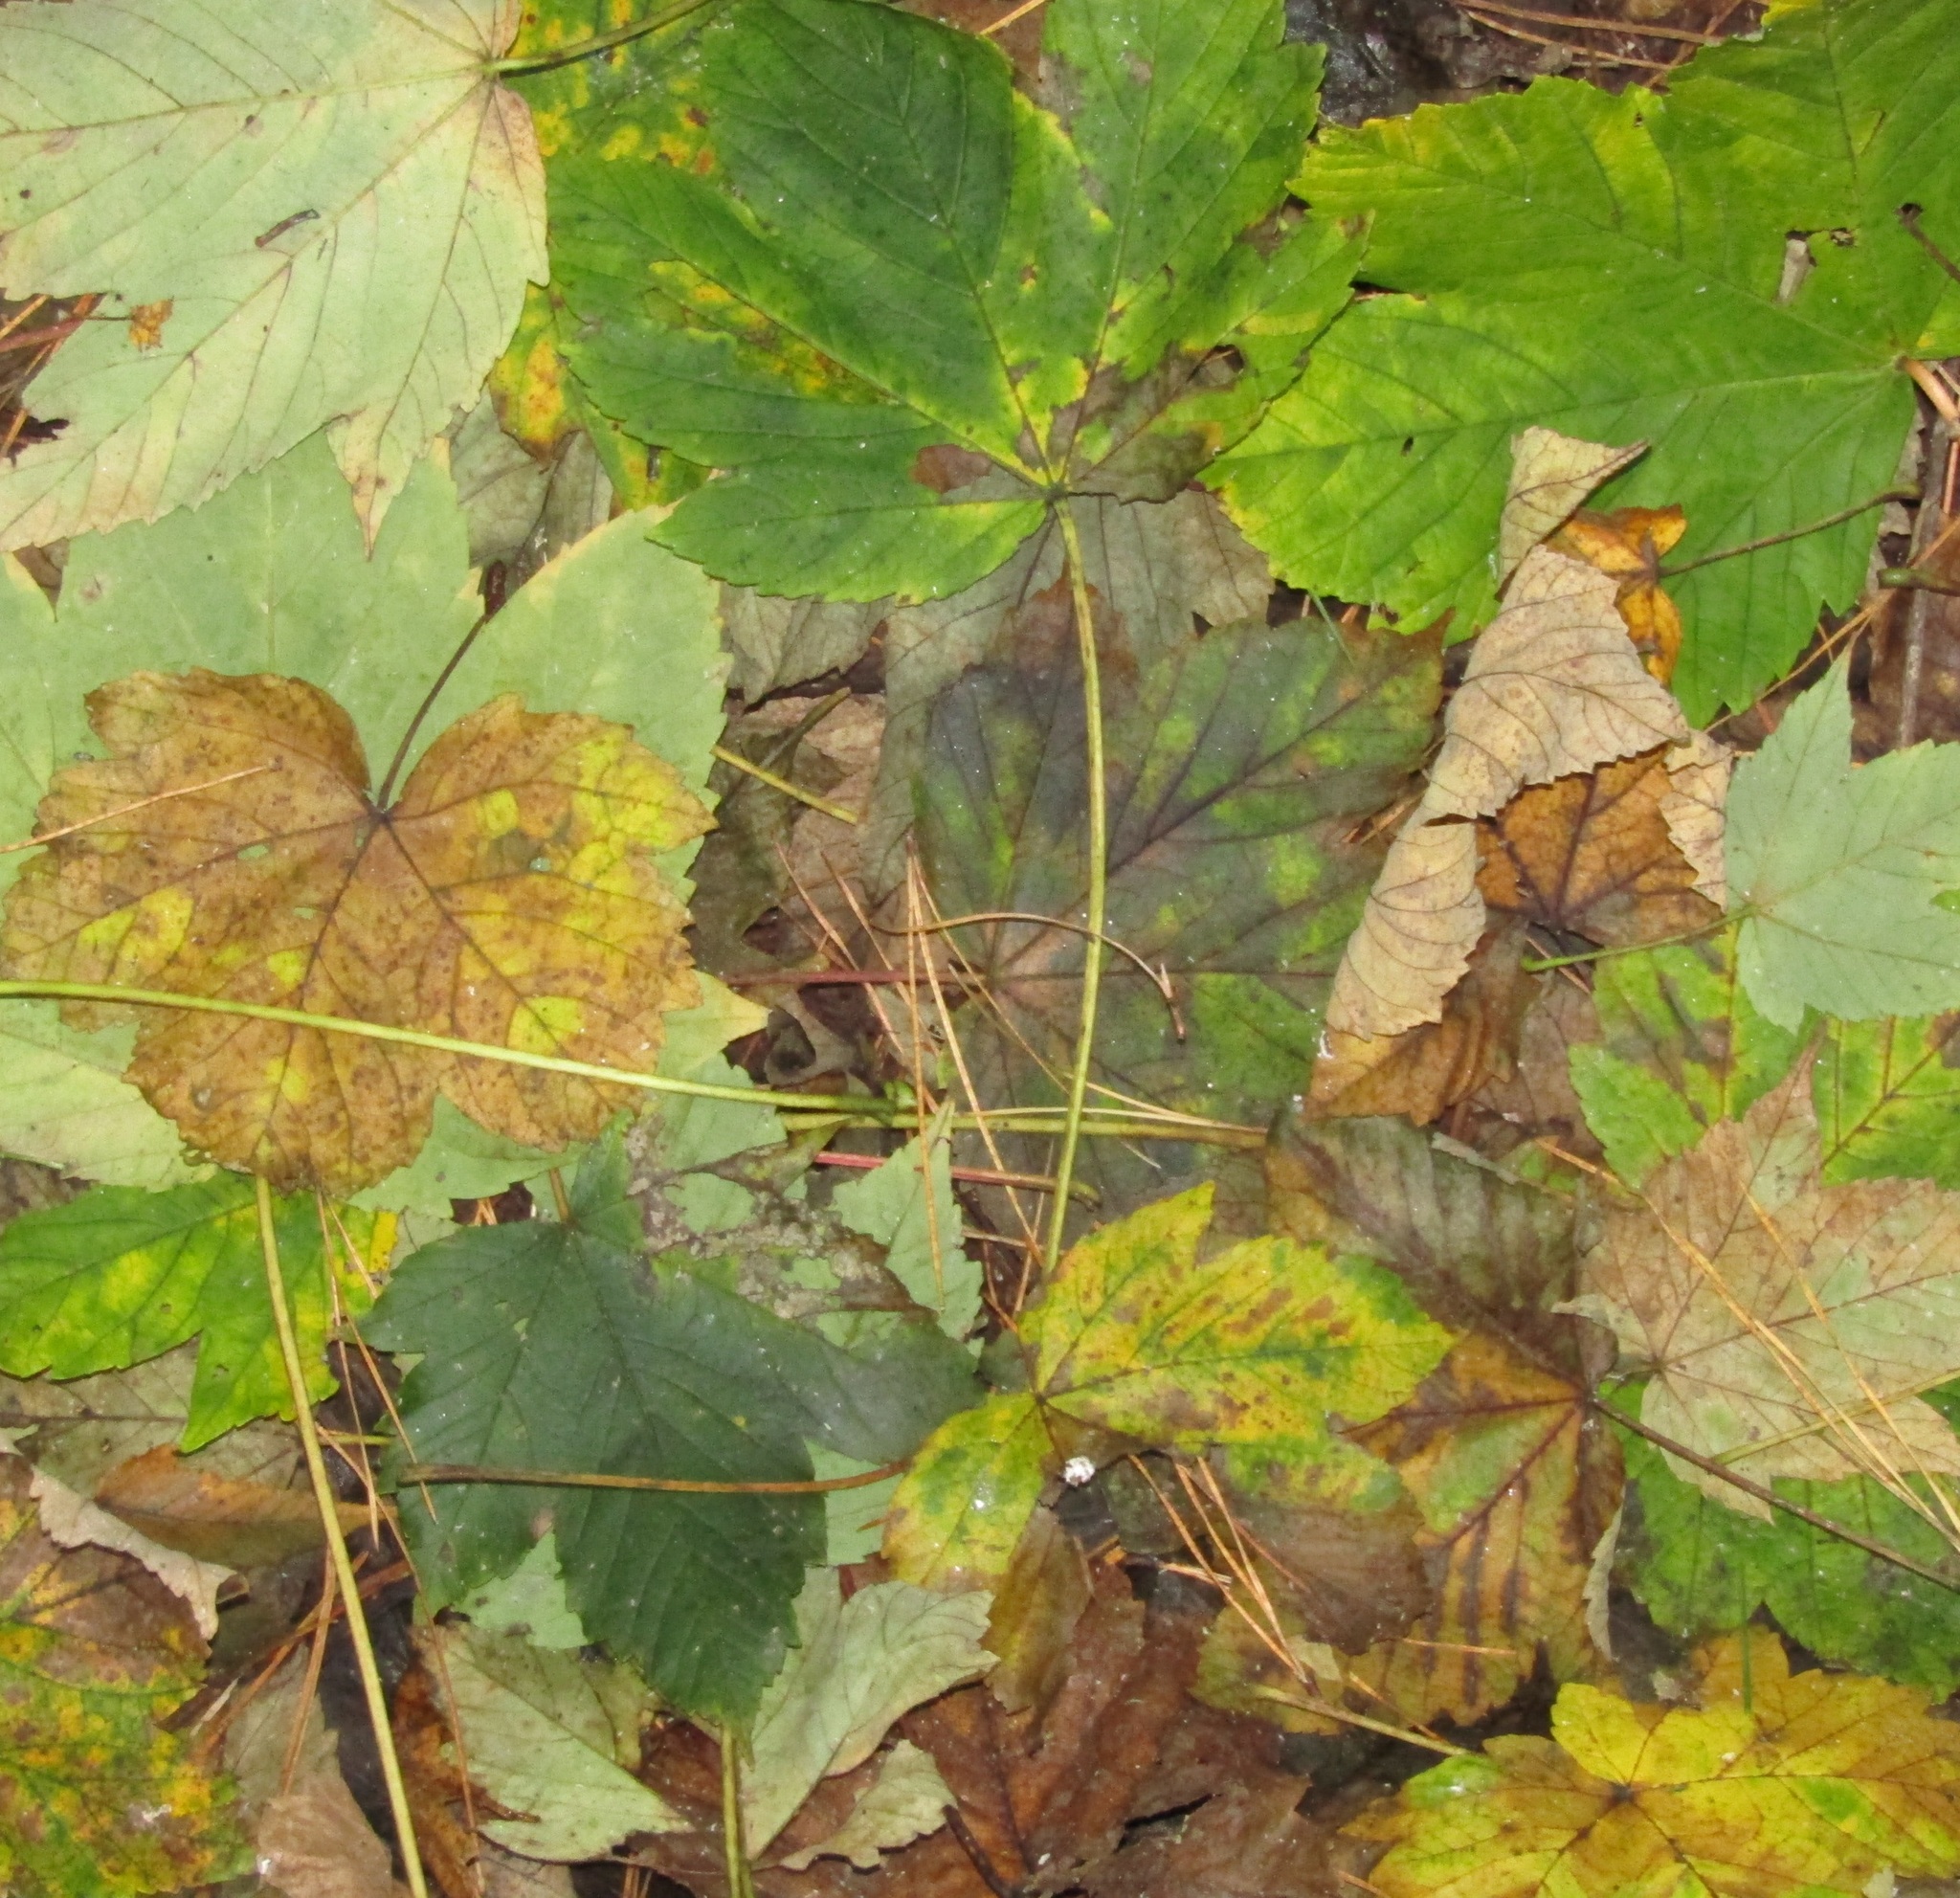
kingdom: Plantae
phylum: Tracheophyta
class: Magnoliopsida
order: Sapindales
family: Sapindaceae
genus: Acer
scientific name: Acer pseudoplatanus
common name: Sycamore
